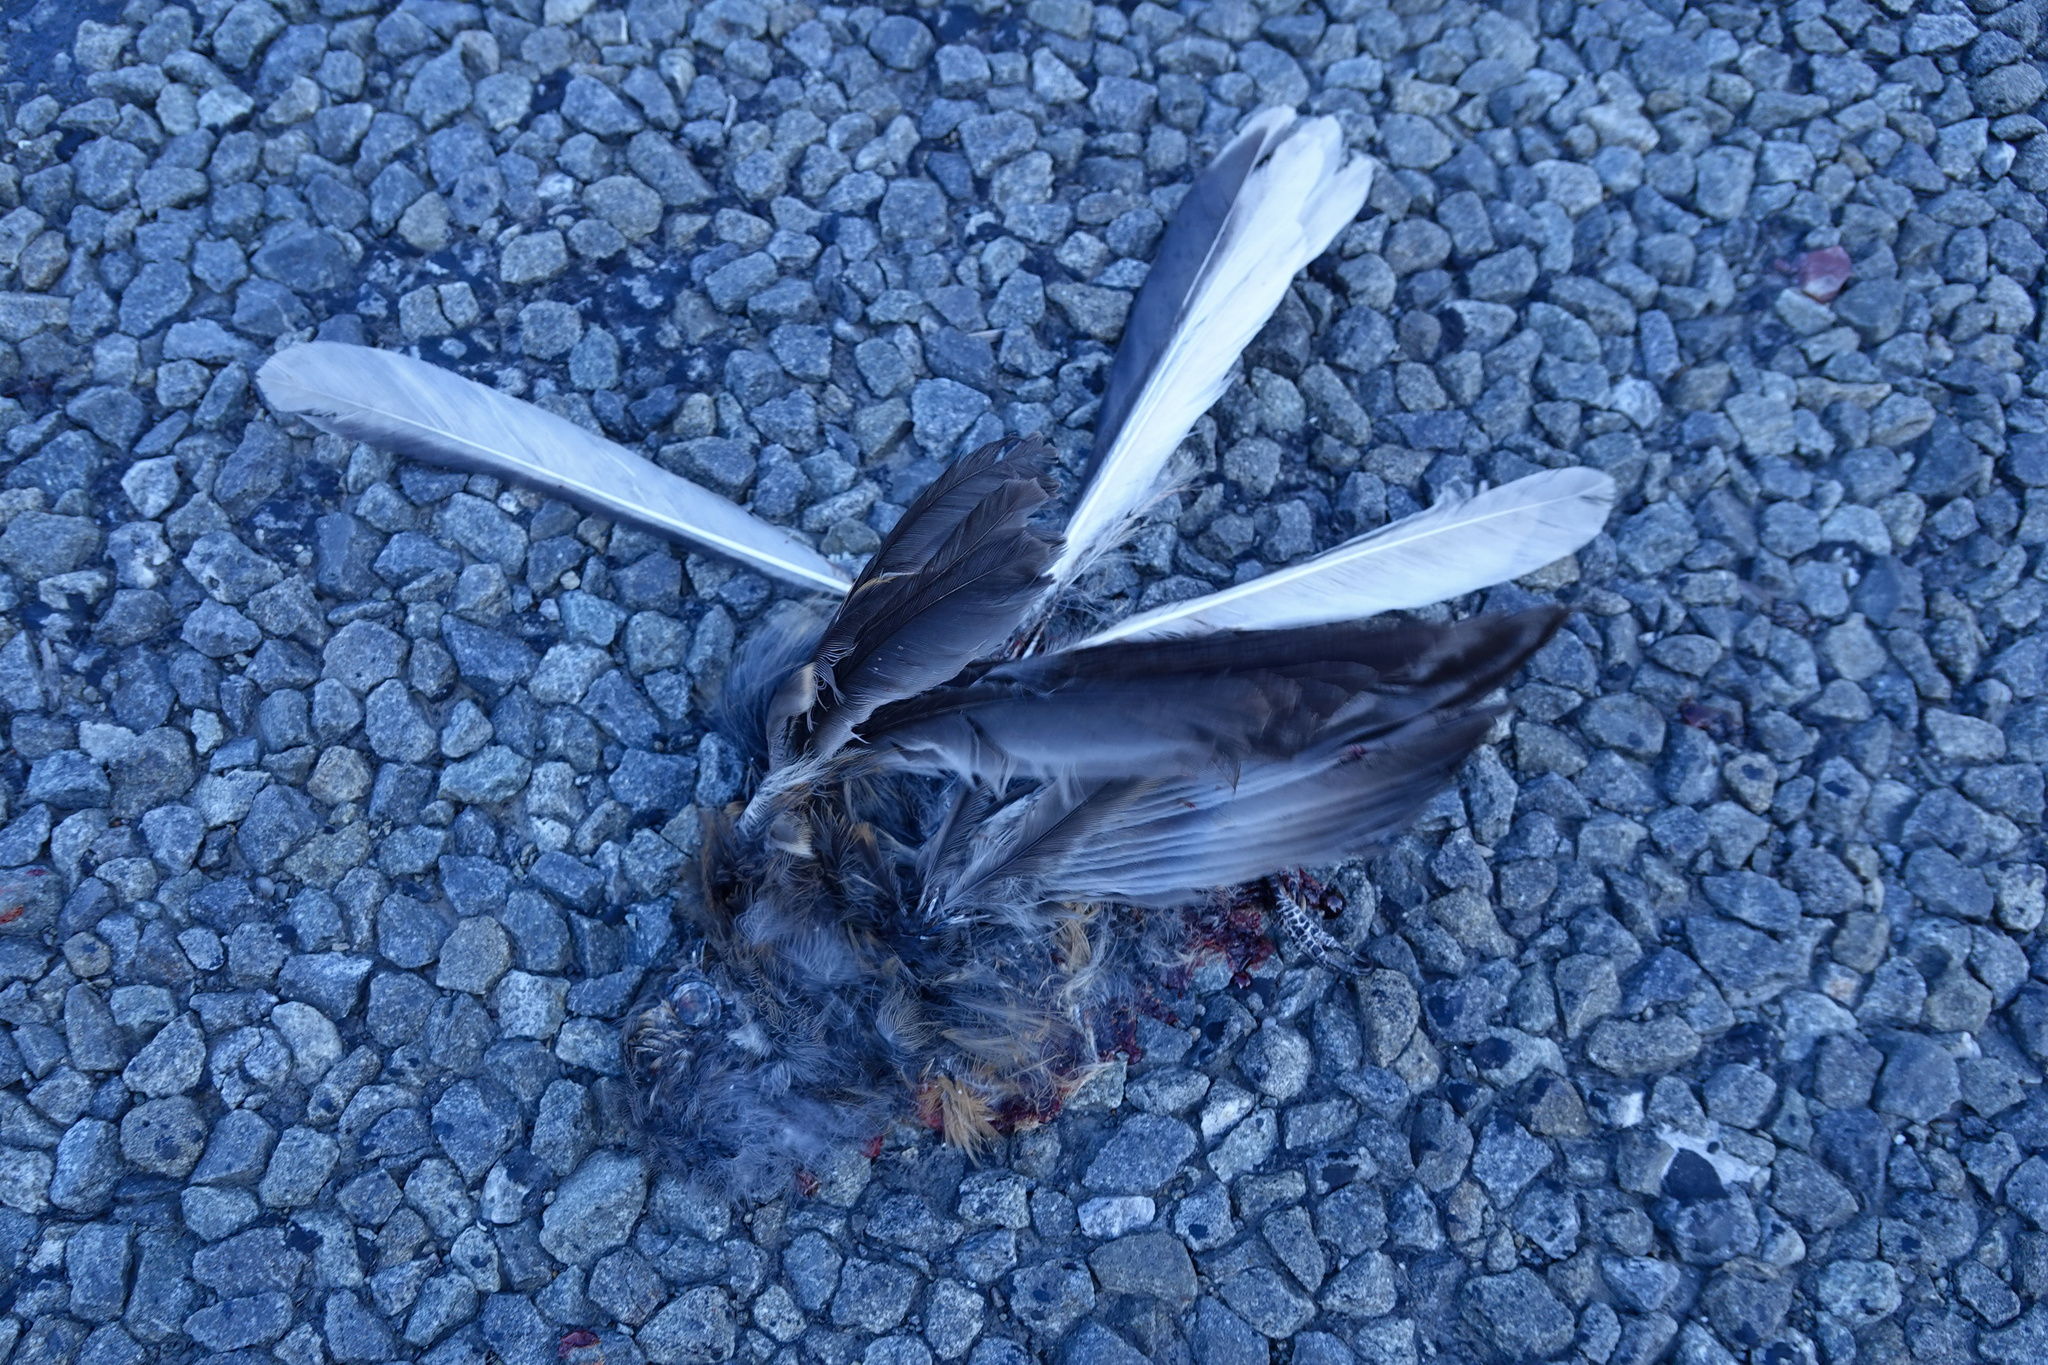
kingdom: Animalia
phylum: Chordata
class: Aves
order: Passeriformes
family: Rhipiduridae
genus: Rhipidura
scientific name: Rhipidura fuliginosa
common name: New zealand fantail
